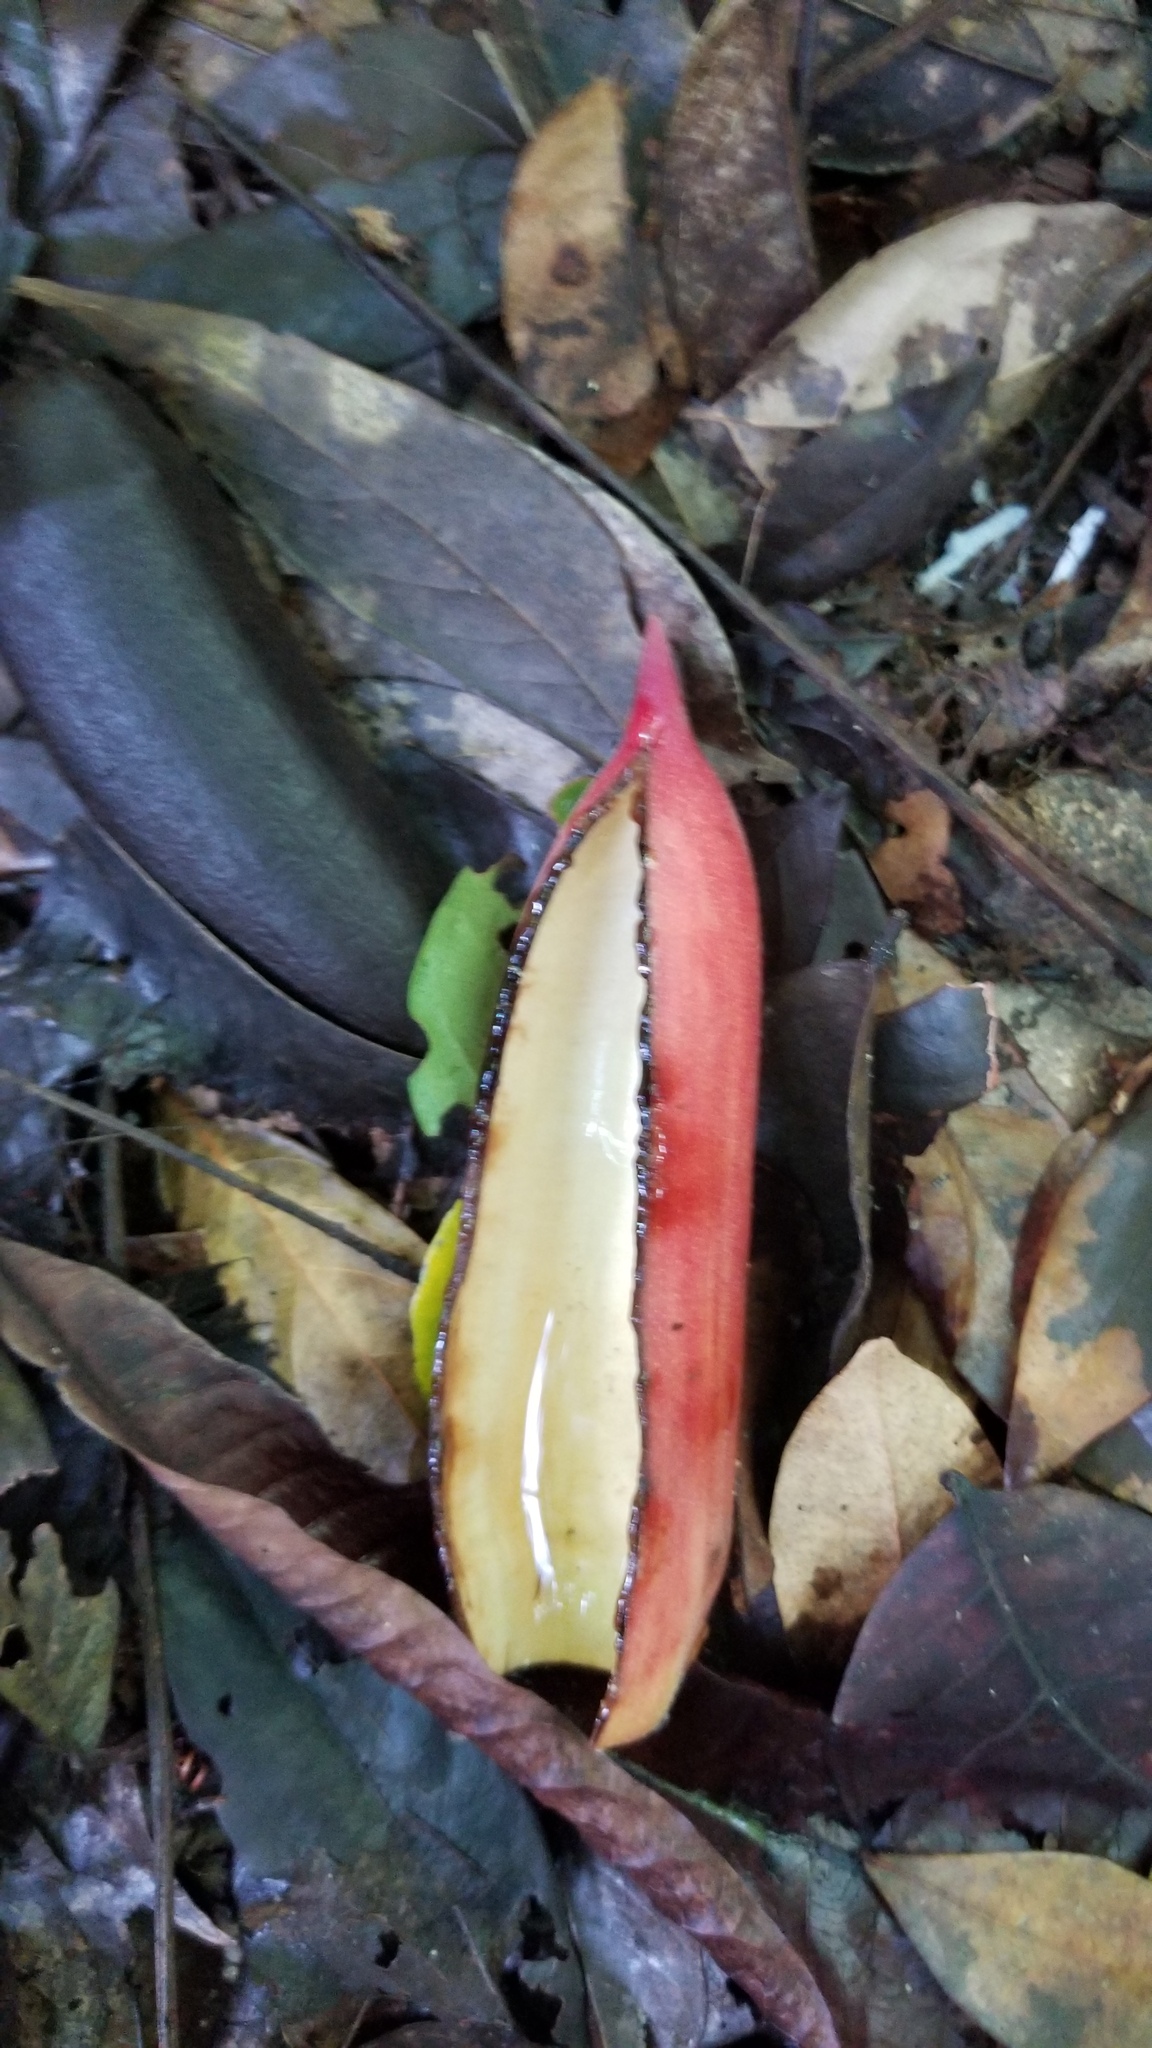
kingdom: Plantae
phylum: Tracheophyta
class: Magnoliopsida
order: Rosales
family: Urticaceae
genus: Cecropia
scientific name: Cecropia insignis
